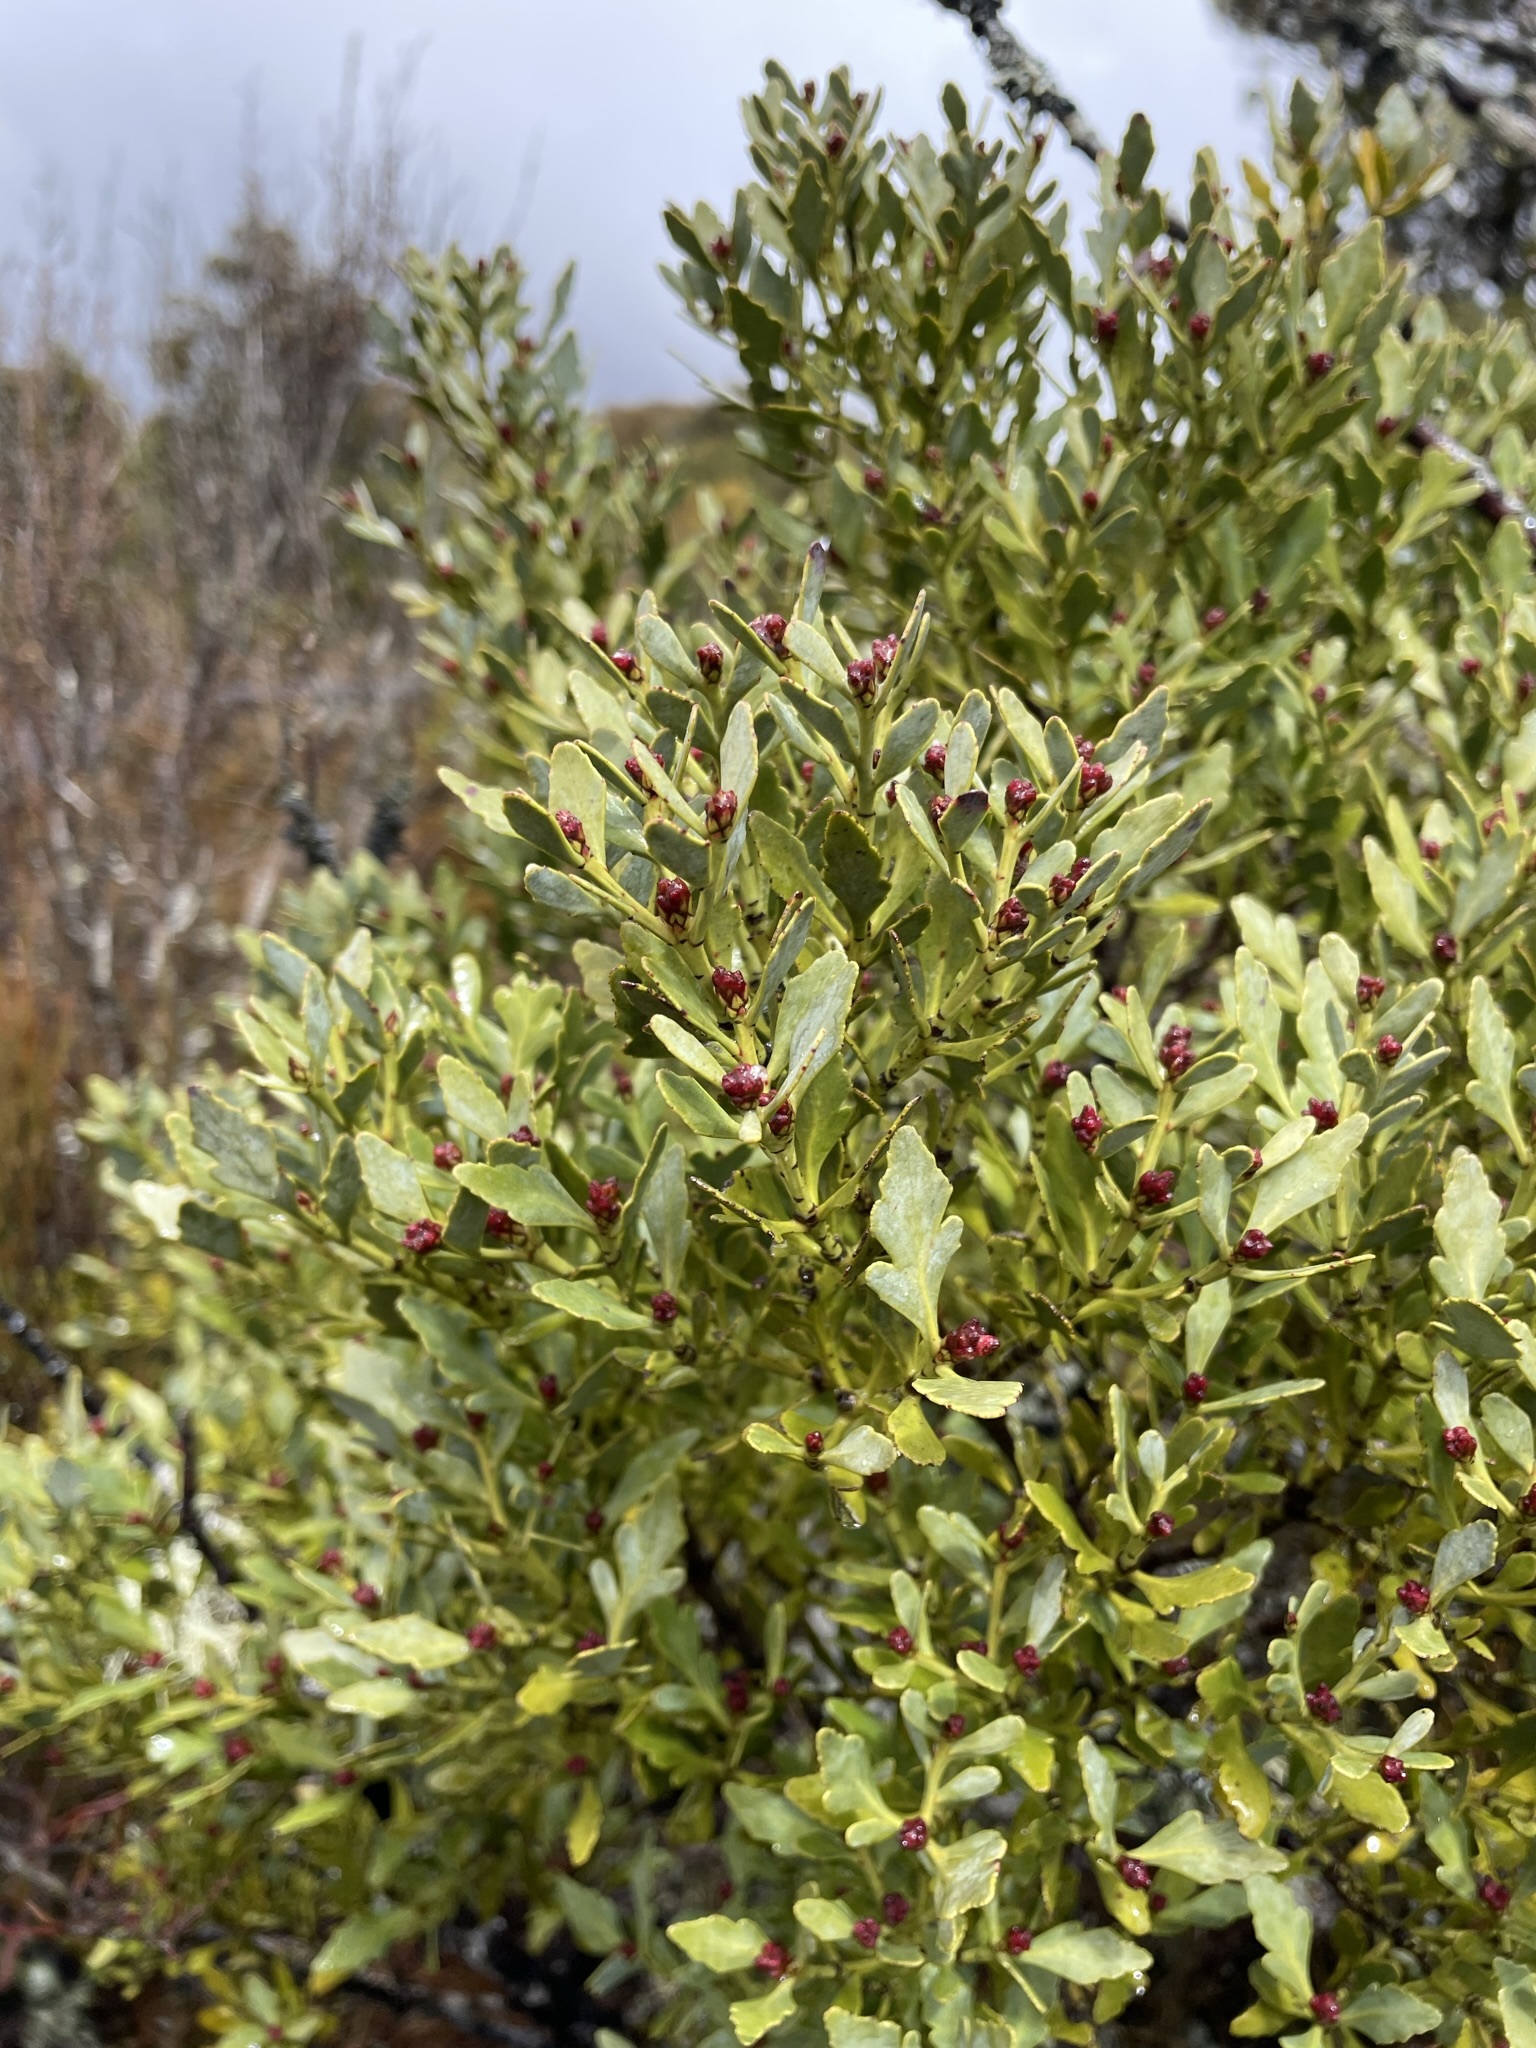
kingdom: Plantae
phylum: Tracheophyta
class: Pinopsida
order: Pinales
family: Phyllocladaceae
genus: Phyllocladus
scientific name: Phyllocladus trichomanoides
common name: Celery pine
